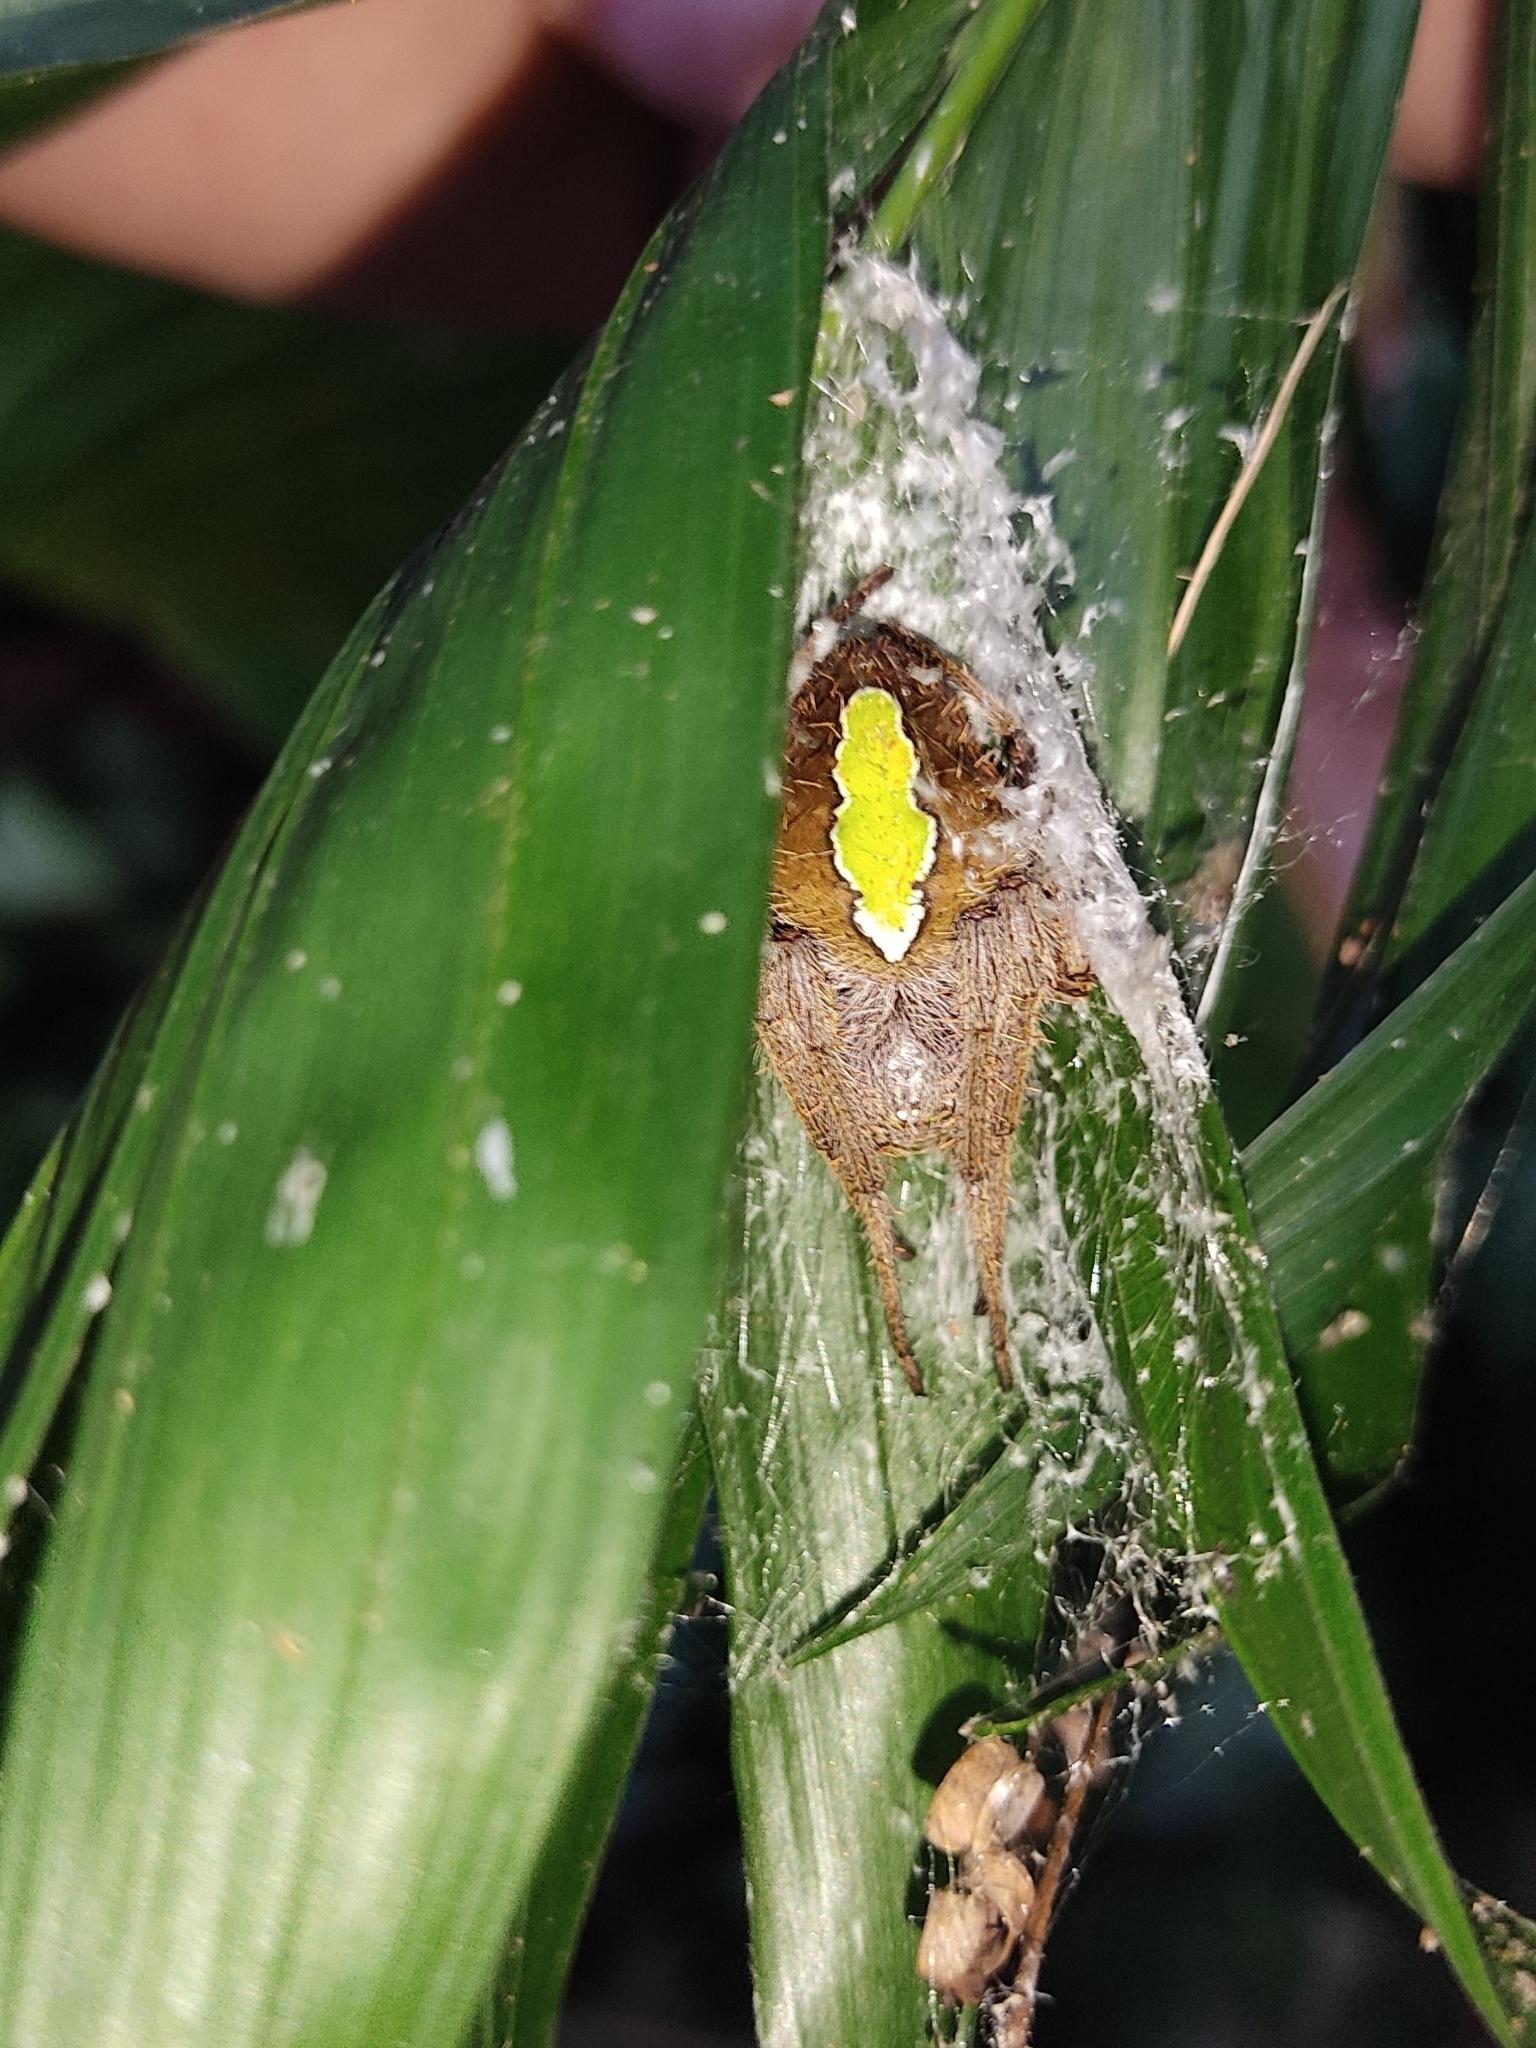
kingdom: Animalia
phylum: Arthropoda
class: Arachnida
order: Araneae
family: Araneidae
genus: Eriophora
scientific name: Eriophora ravilla
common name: Orb weavers
